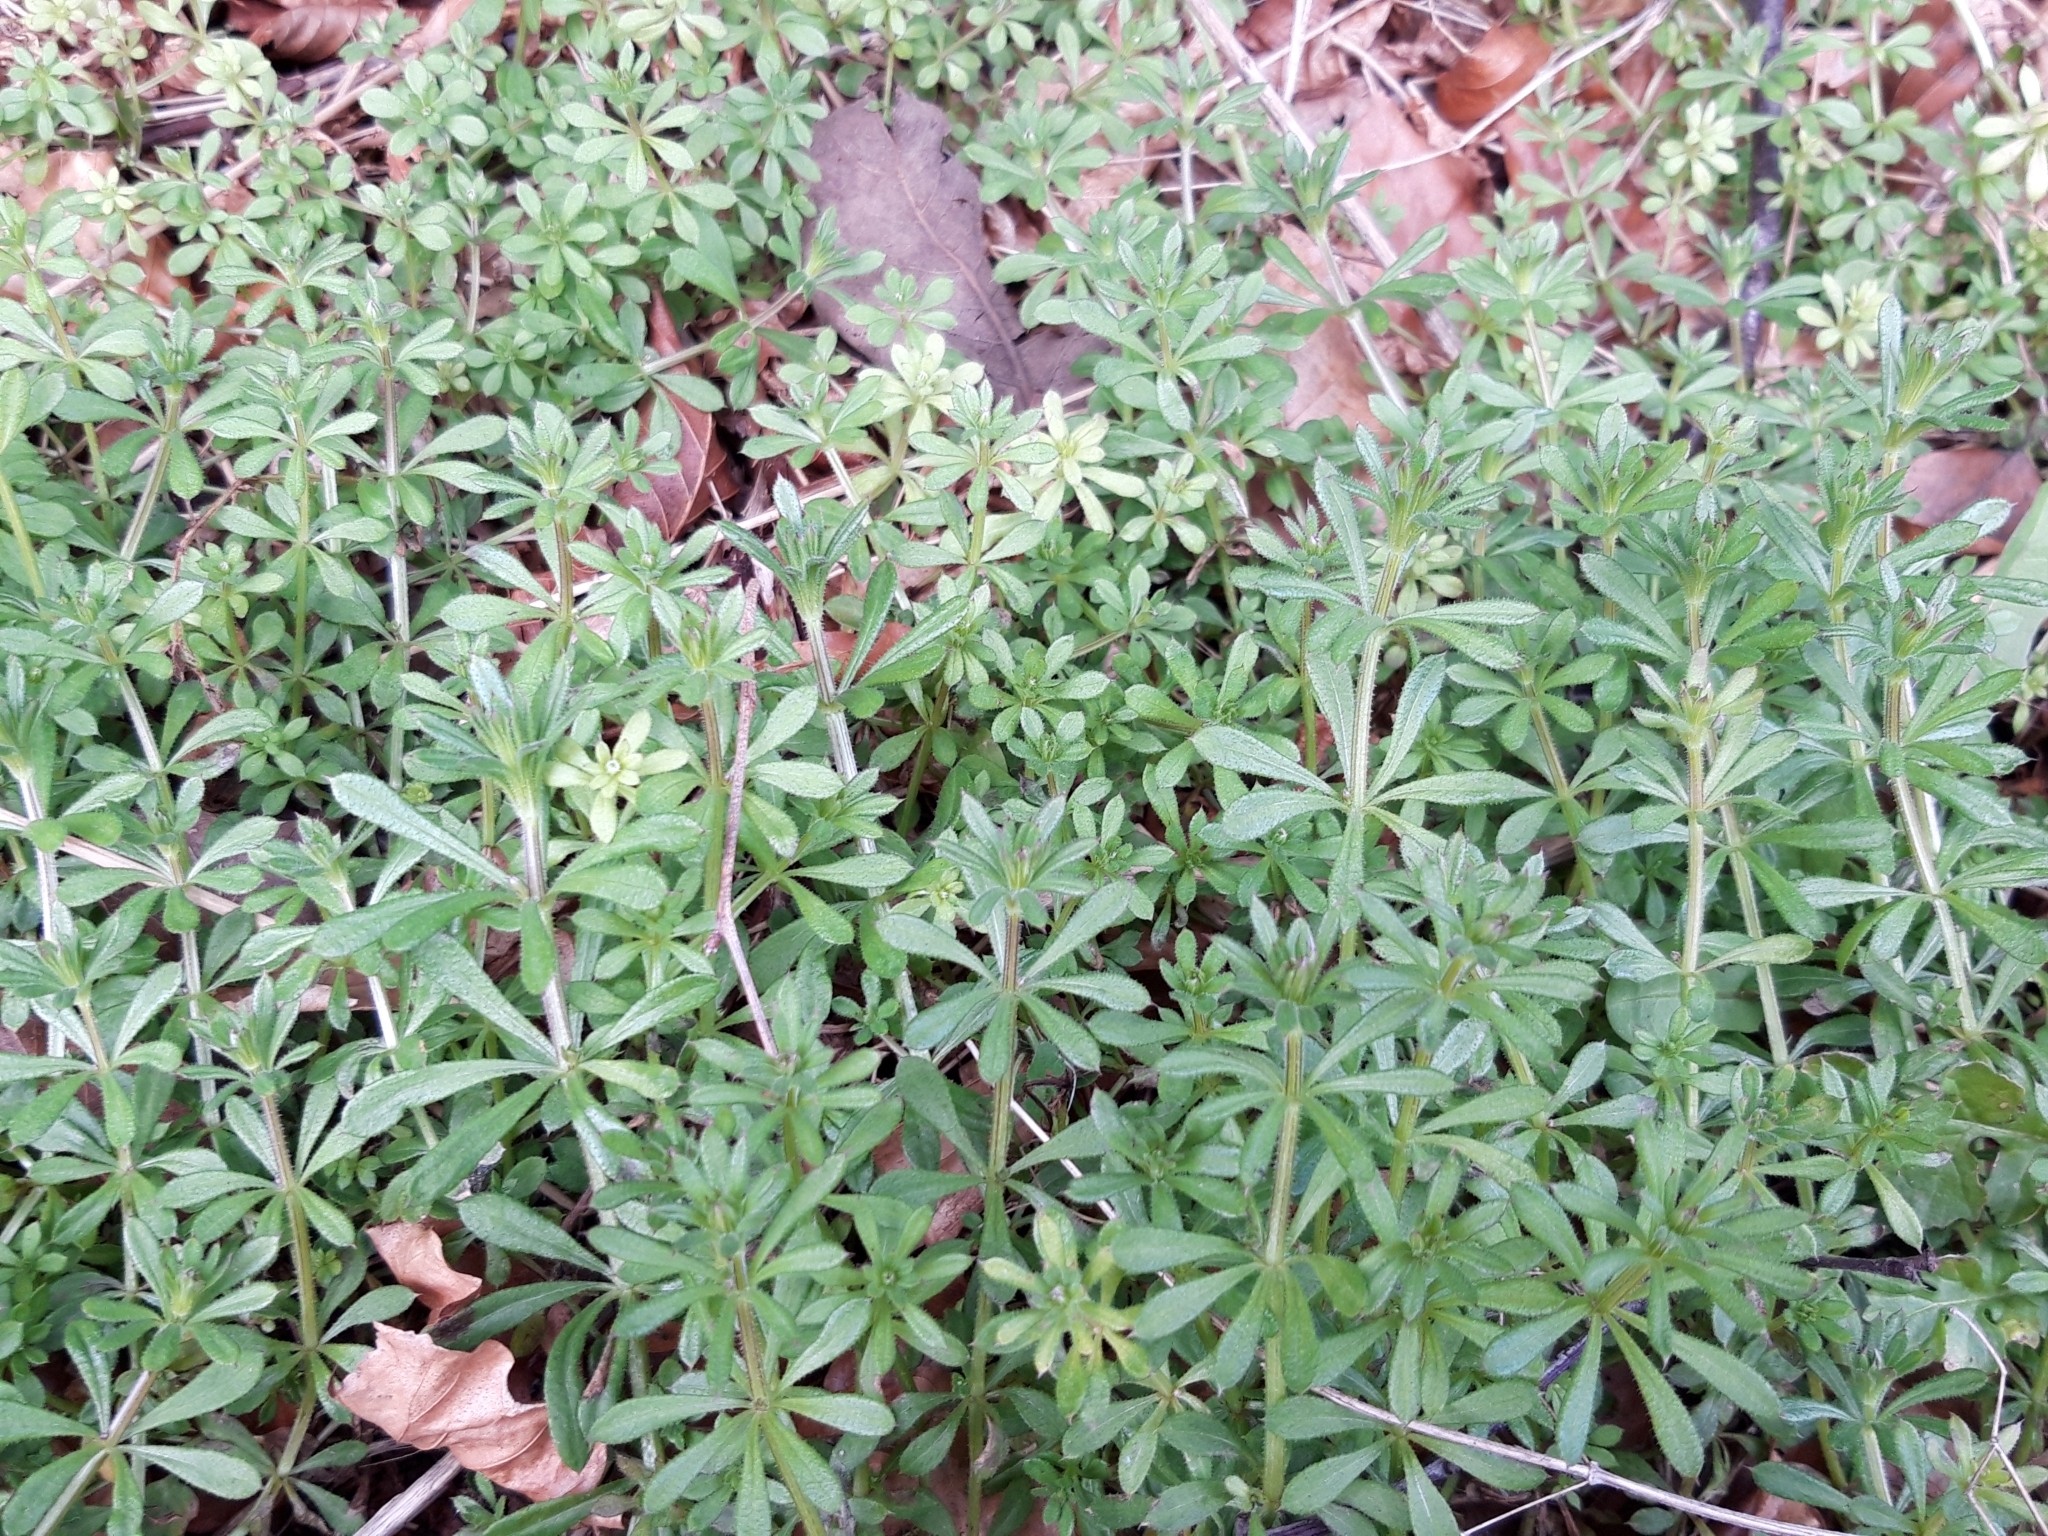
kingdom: Plantae
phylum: Tracheophyta
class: Magnoliopsida
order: Gentianales
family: Rubiaceae
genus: Galium
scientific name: Galium aparine
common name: Cleavers
